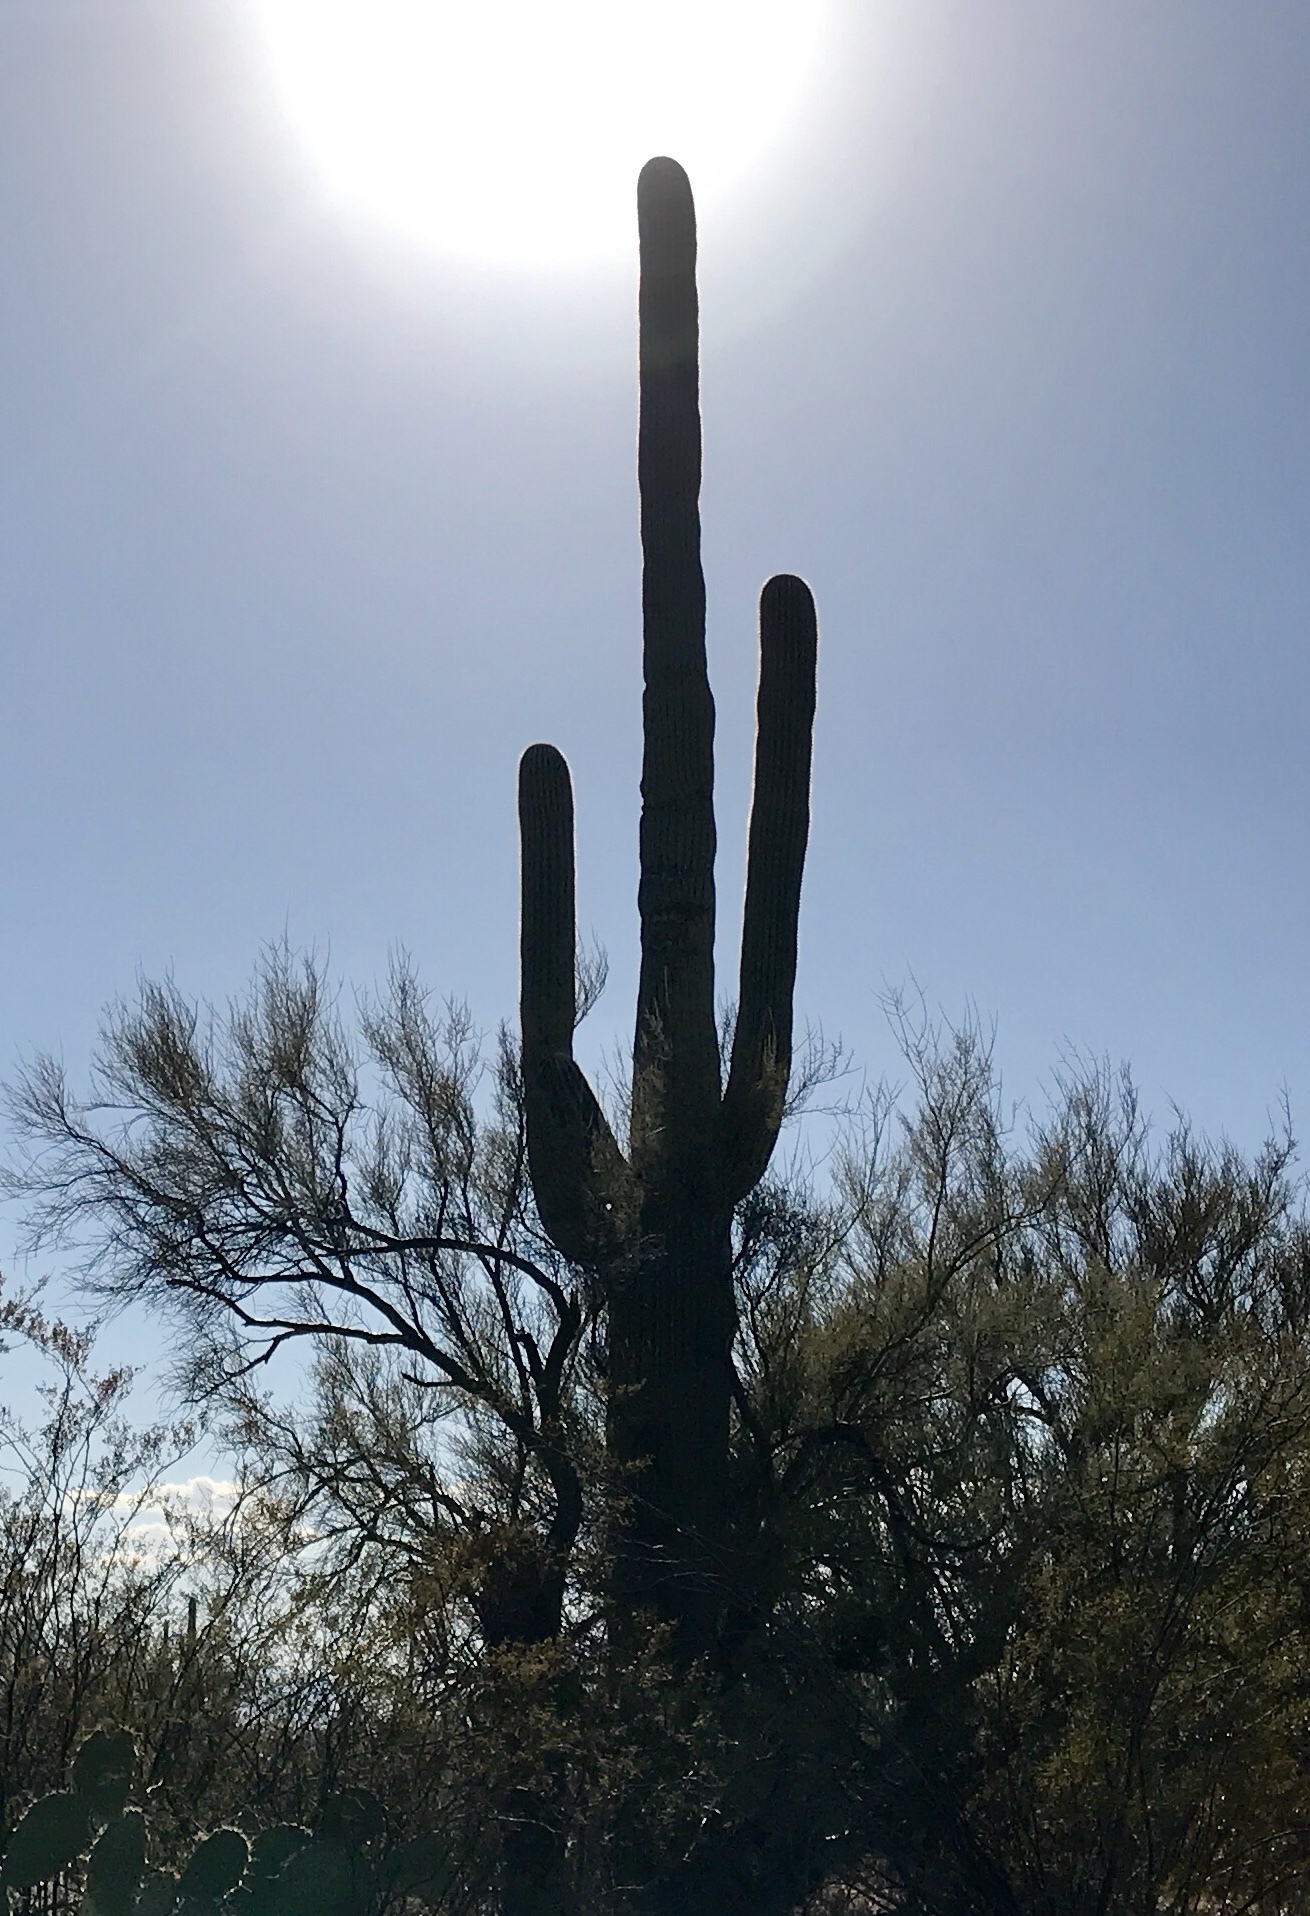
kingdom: Plantae
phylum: Tracheophyta
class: Magnoliopsida
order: Caryophyllales
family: Cactaceae
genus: Carnegiea
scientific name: Carnegiea gigantea
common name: Saguaro
